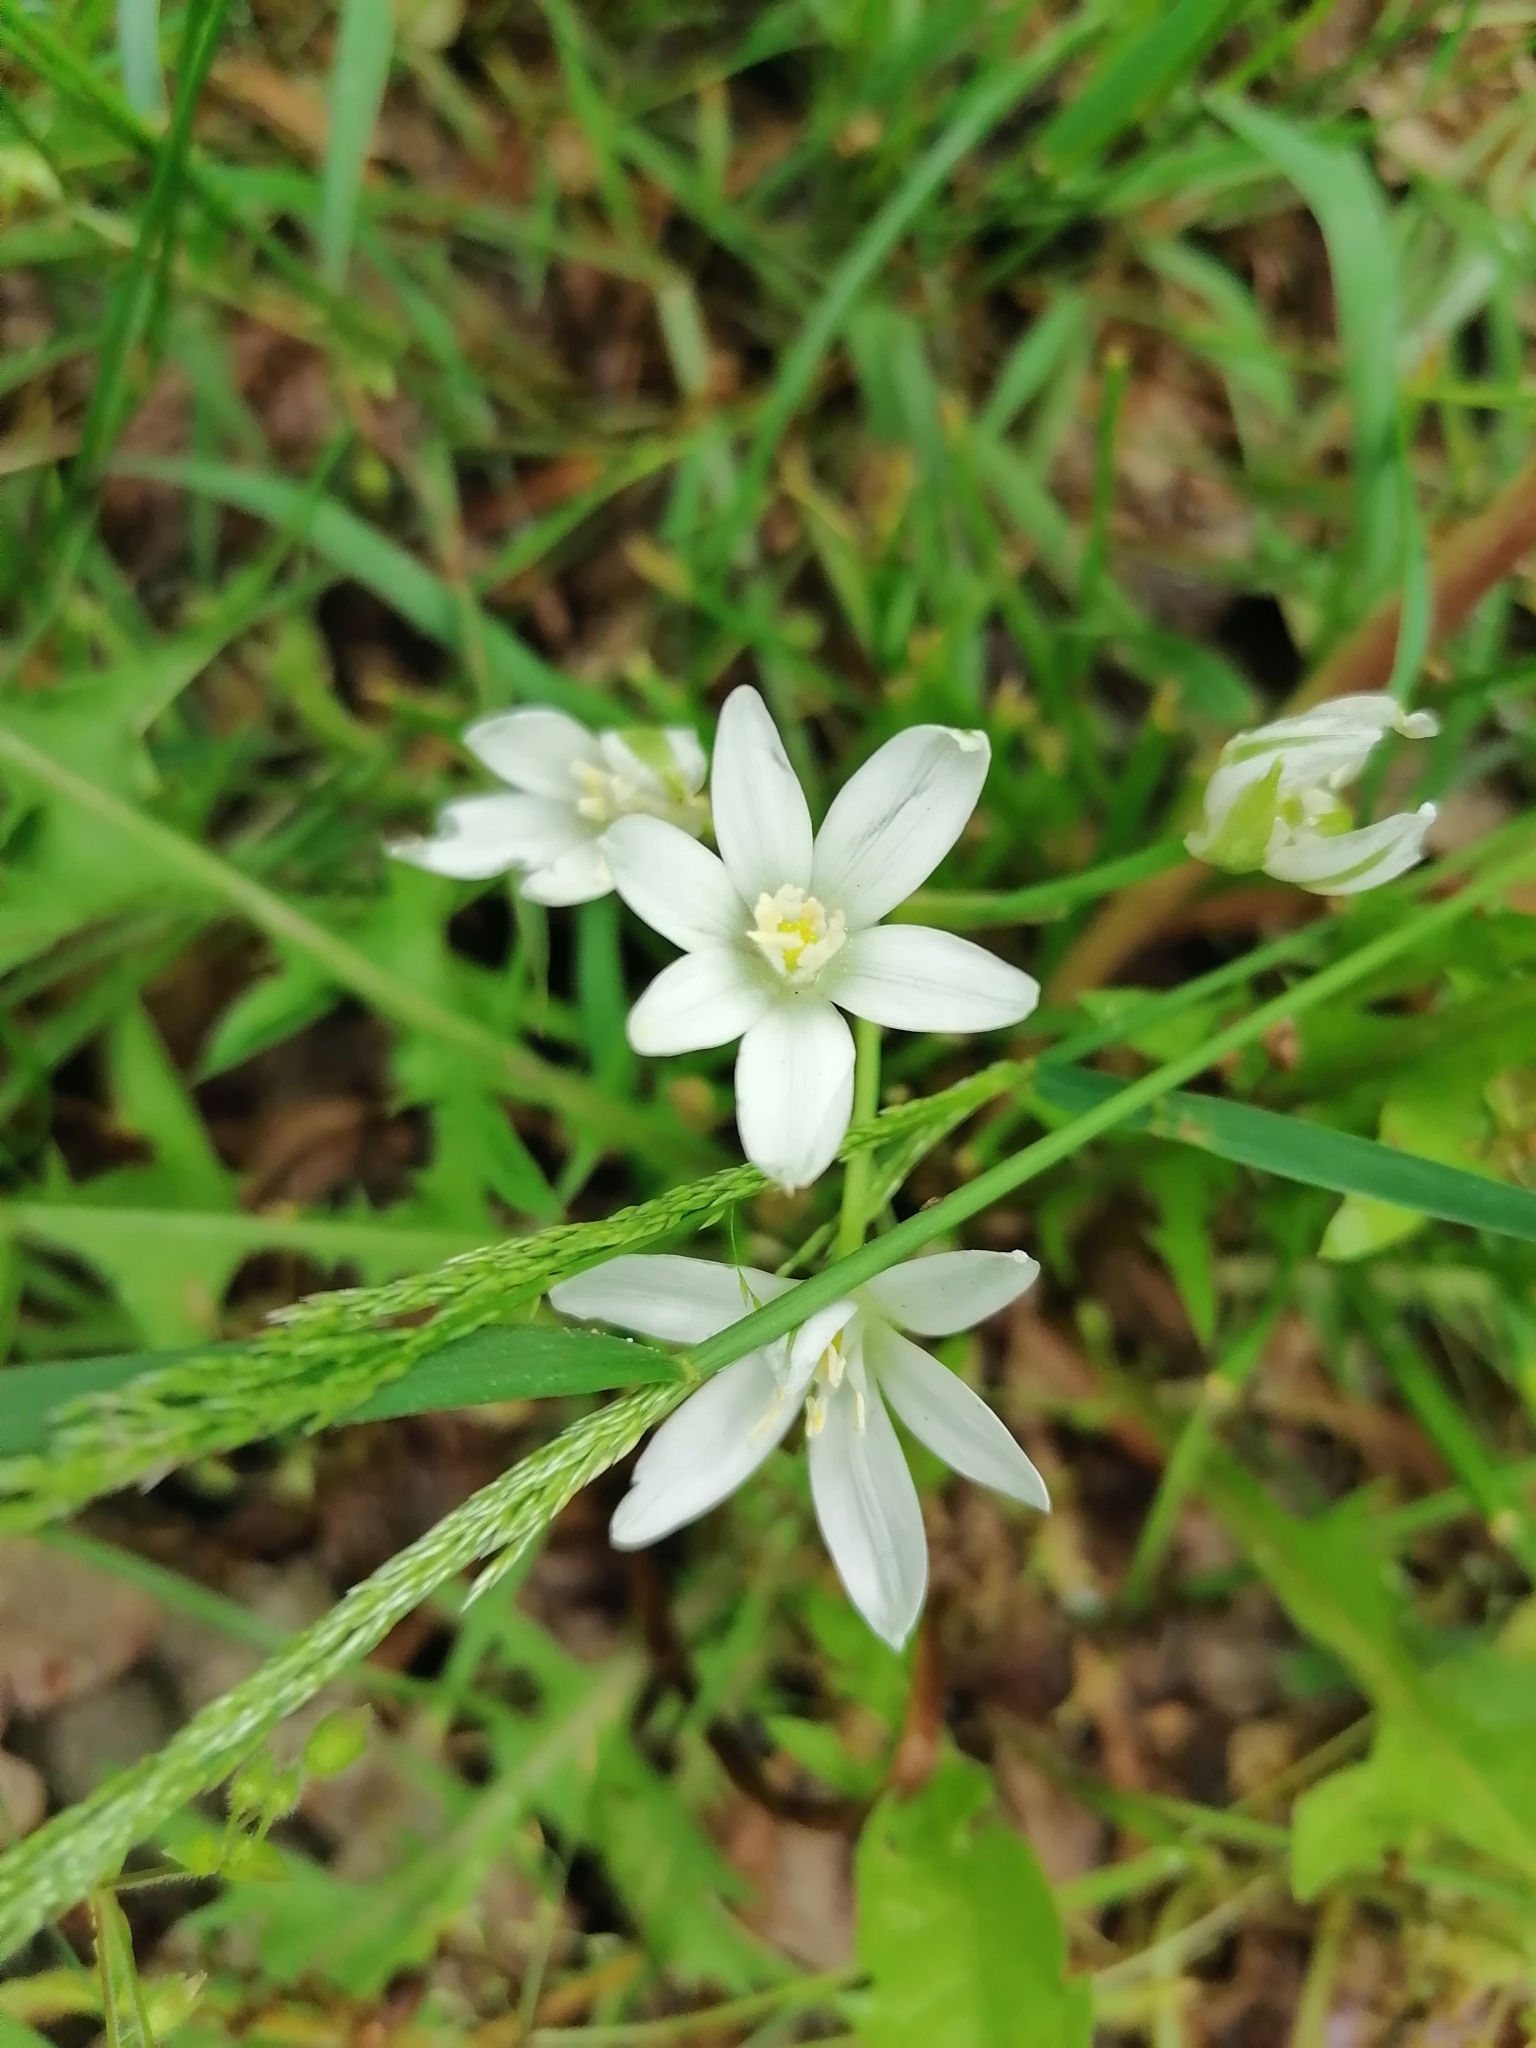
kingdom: Plantae
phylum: Tracheophyta
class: Liliopsida
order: Asparagales
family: Asparagaceae
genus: Ornithogalum
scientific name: Ornithogalum umbellatum
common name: Garden star-of-bethlehem
